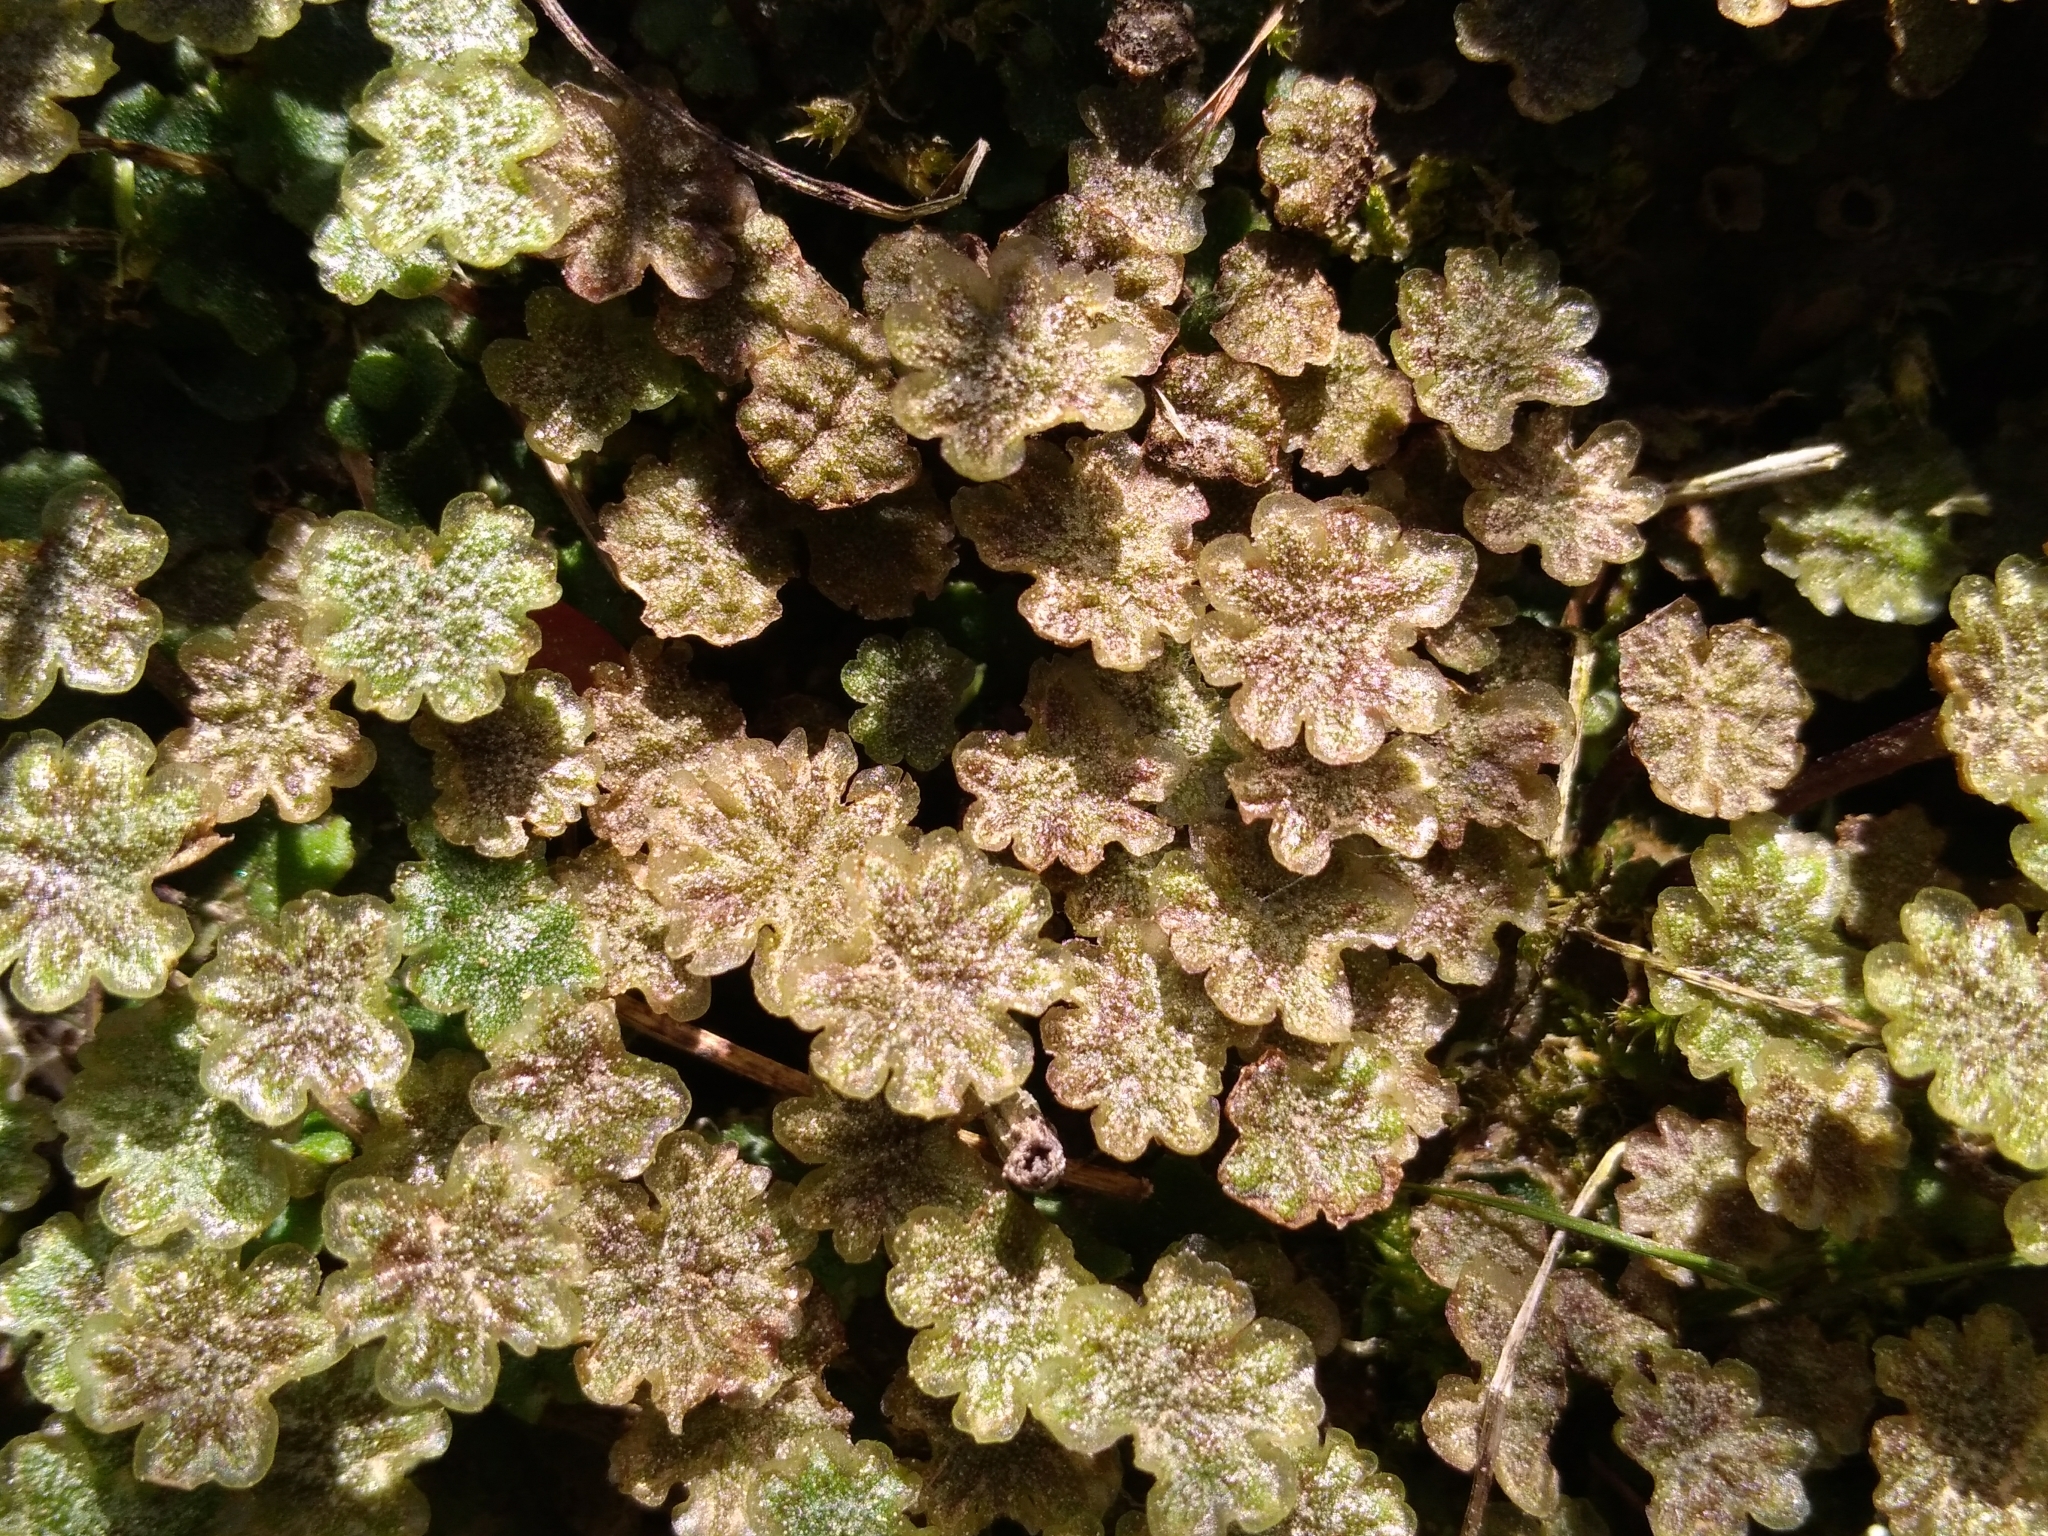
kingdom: Plantae
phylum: Marchantiophyta
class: Marchantiopsida
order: Marchantiales
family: Marchantiaceae
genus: Marchantia
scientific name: Marchantia polymorpha
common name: Common liverwort
